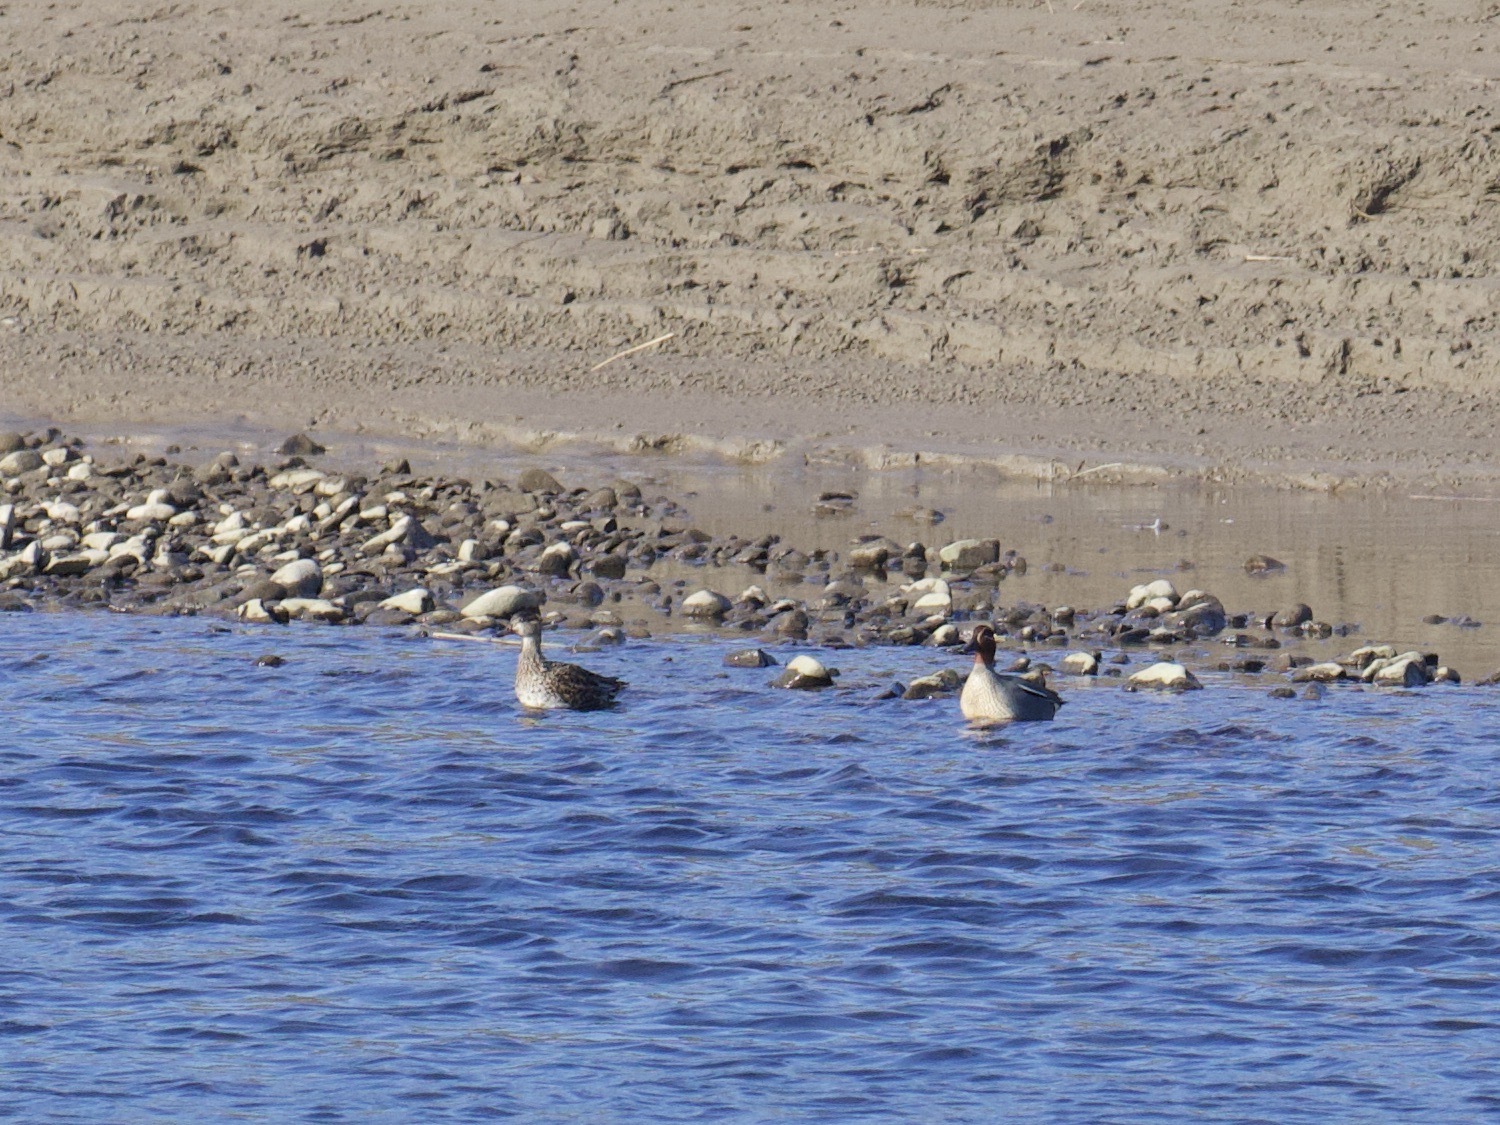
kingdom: Animalia
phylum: Chordata
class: Aves
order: Anseriformes
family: Anatidae
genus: Anas
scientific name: Anas crecca
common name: Eurasian teal
